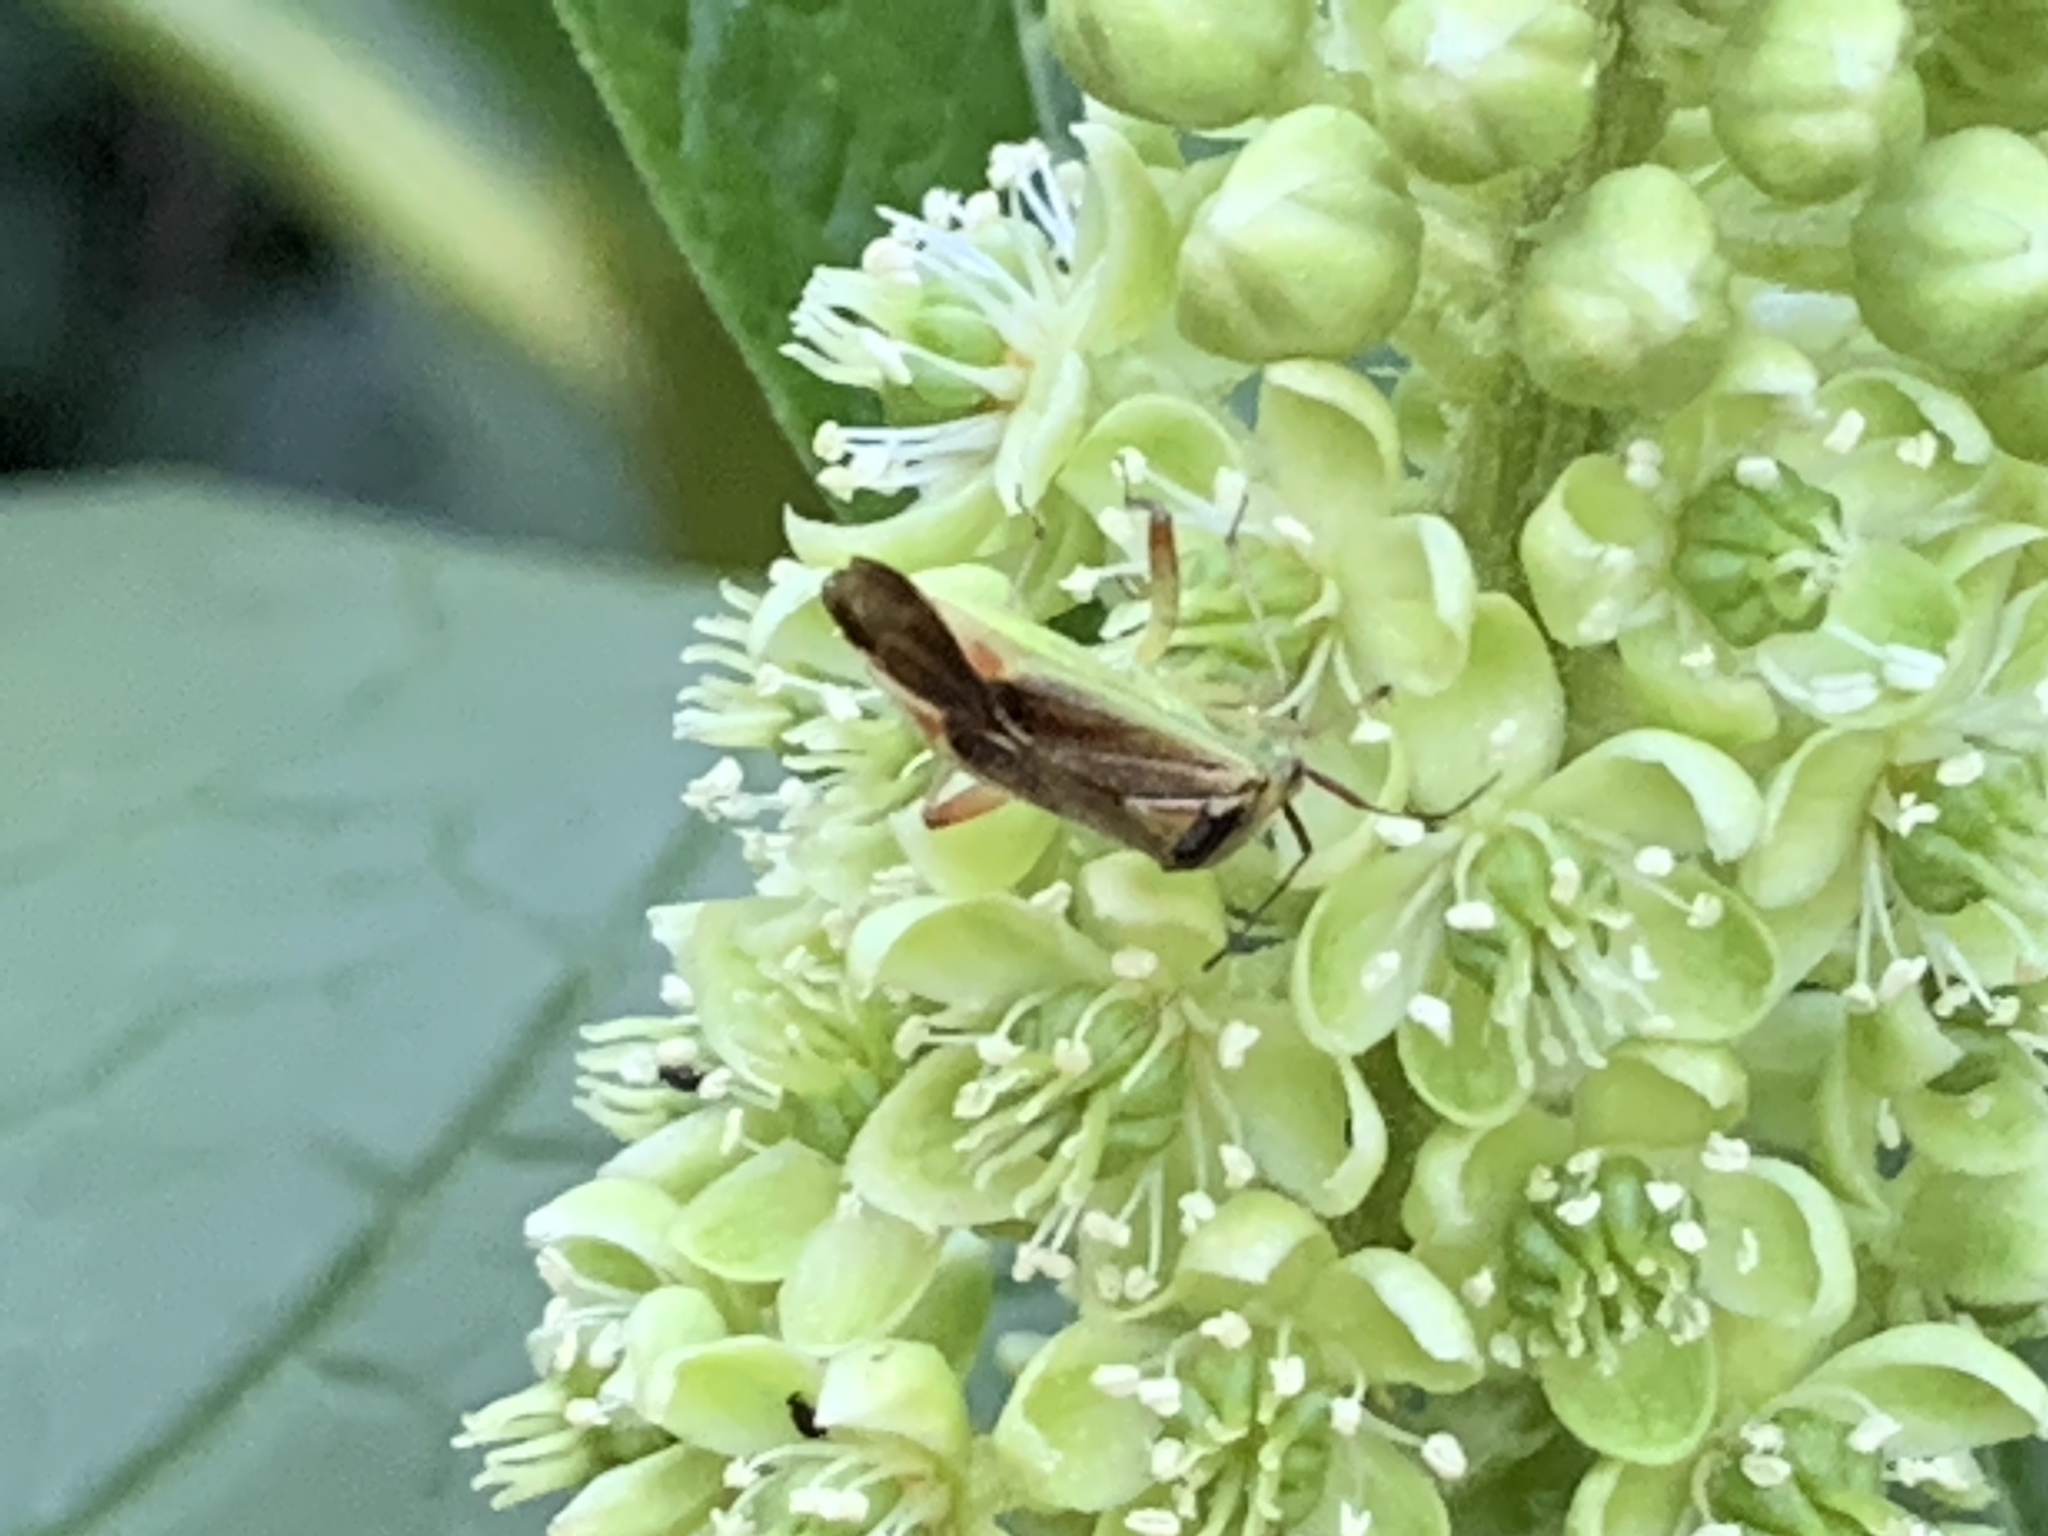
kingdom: Animalia
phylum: Arthropoda
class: Insecta
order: Hemiptera
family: Miridae
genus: Closterotomus
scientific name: Closterotomus trivialis
